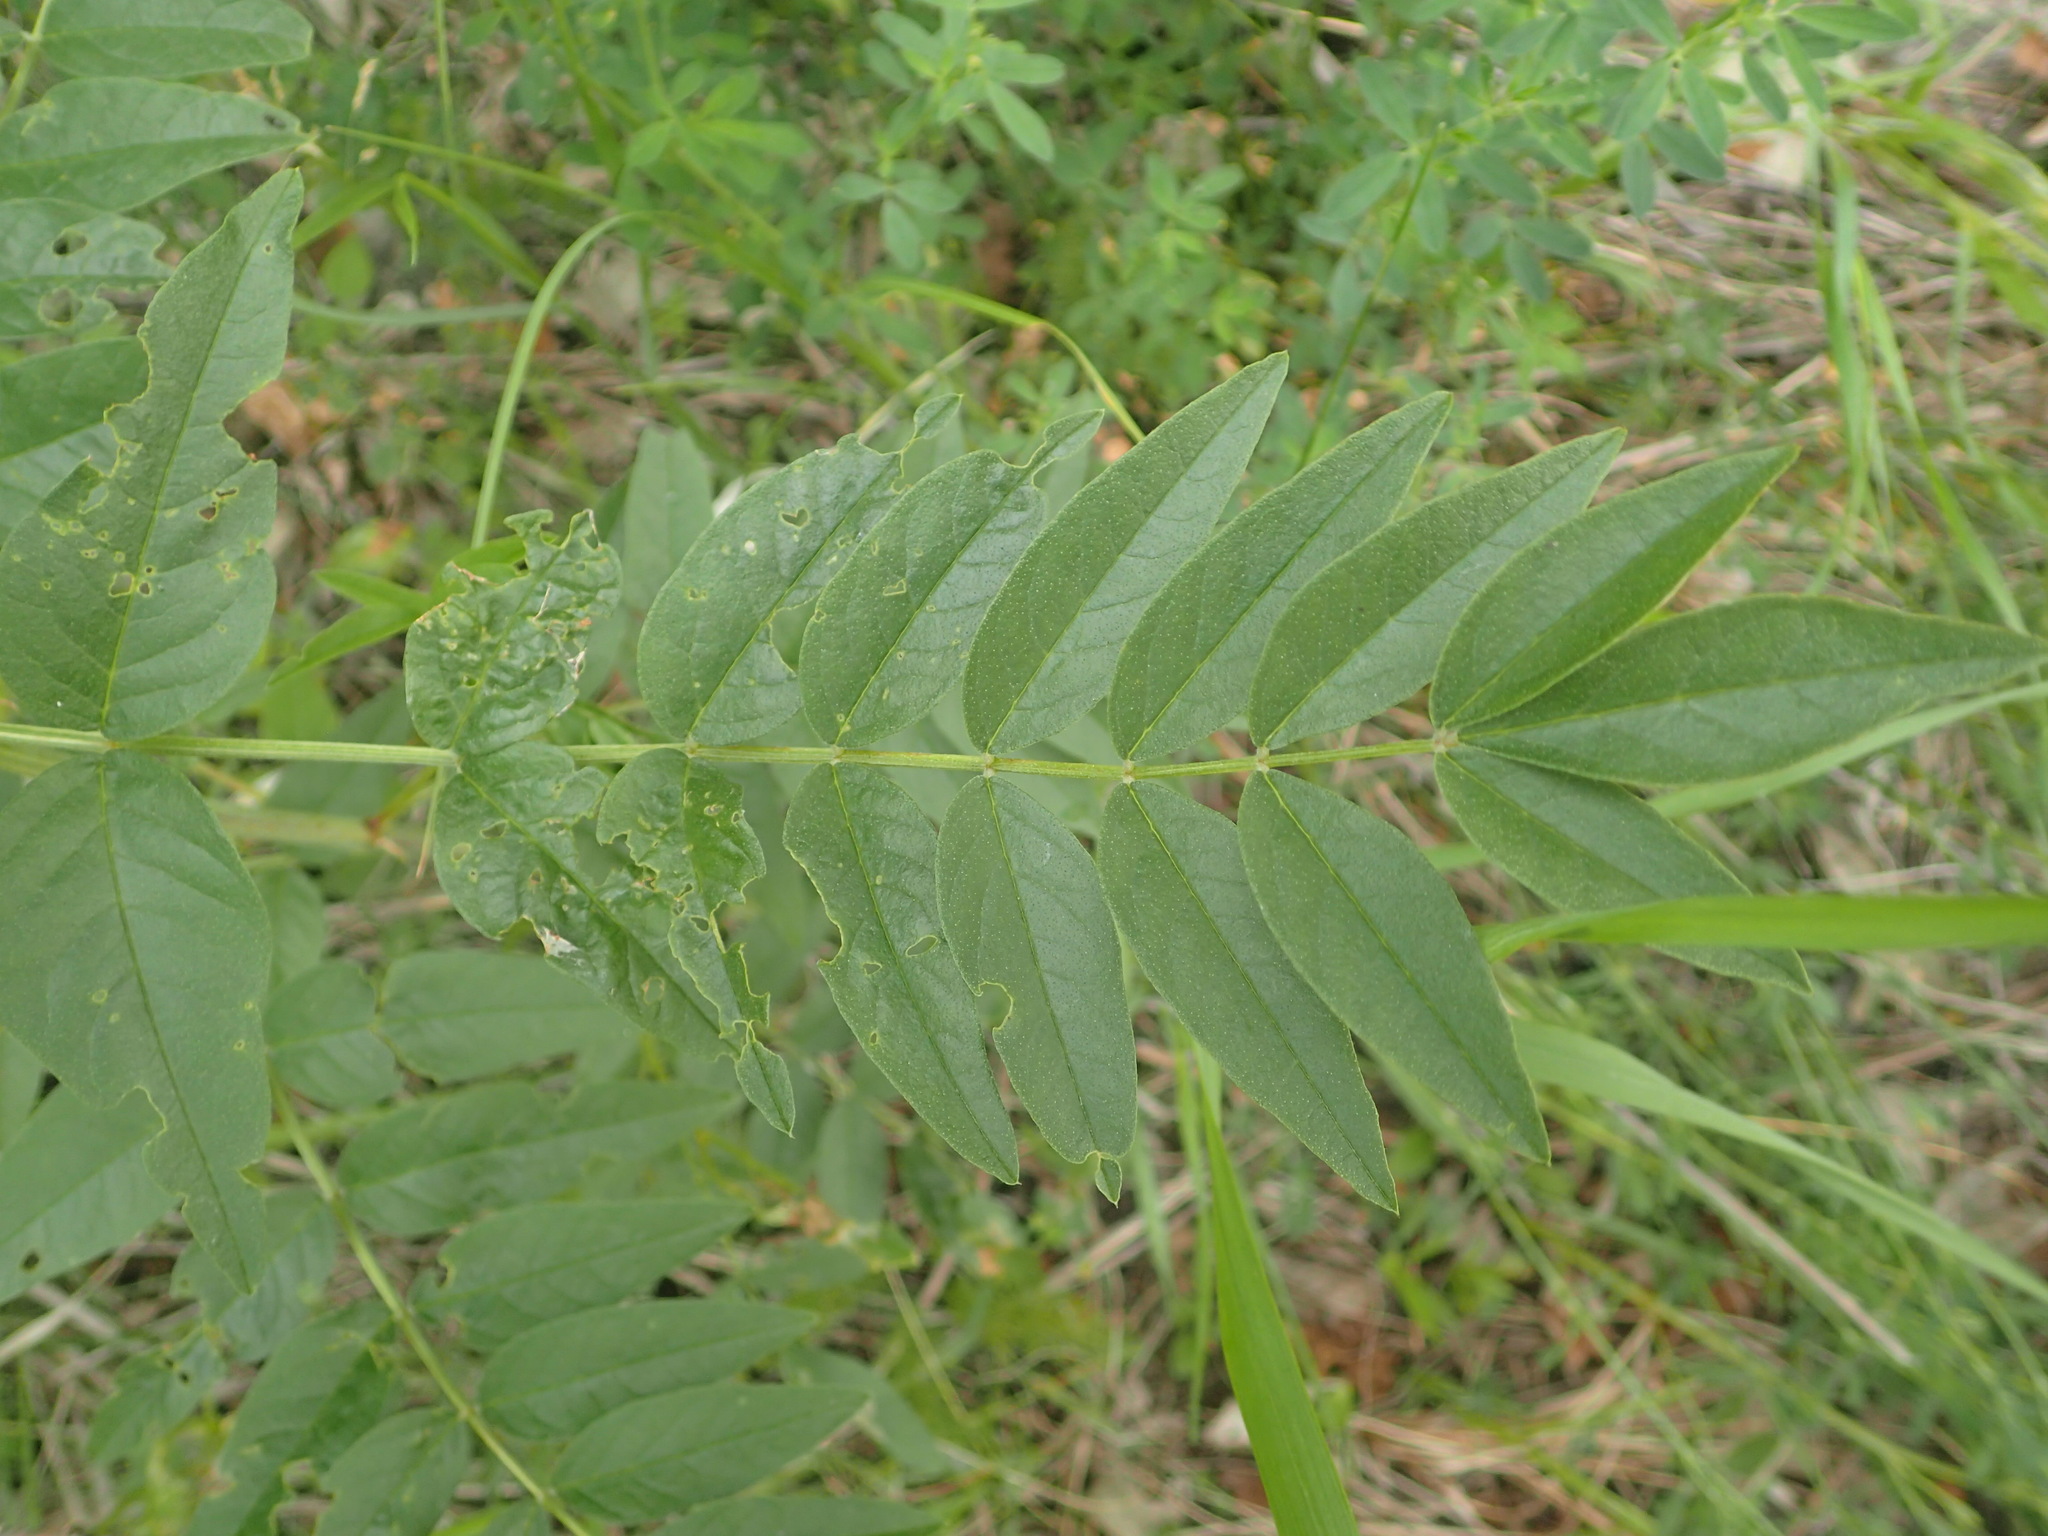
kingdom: Plantae
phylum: Tracheophyta
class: Magnoliopsida
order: Fabales
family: Fabaceae
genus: Glycyrrhiza
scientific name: Glycyrrhiza lepidota
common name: American liquorice
